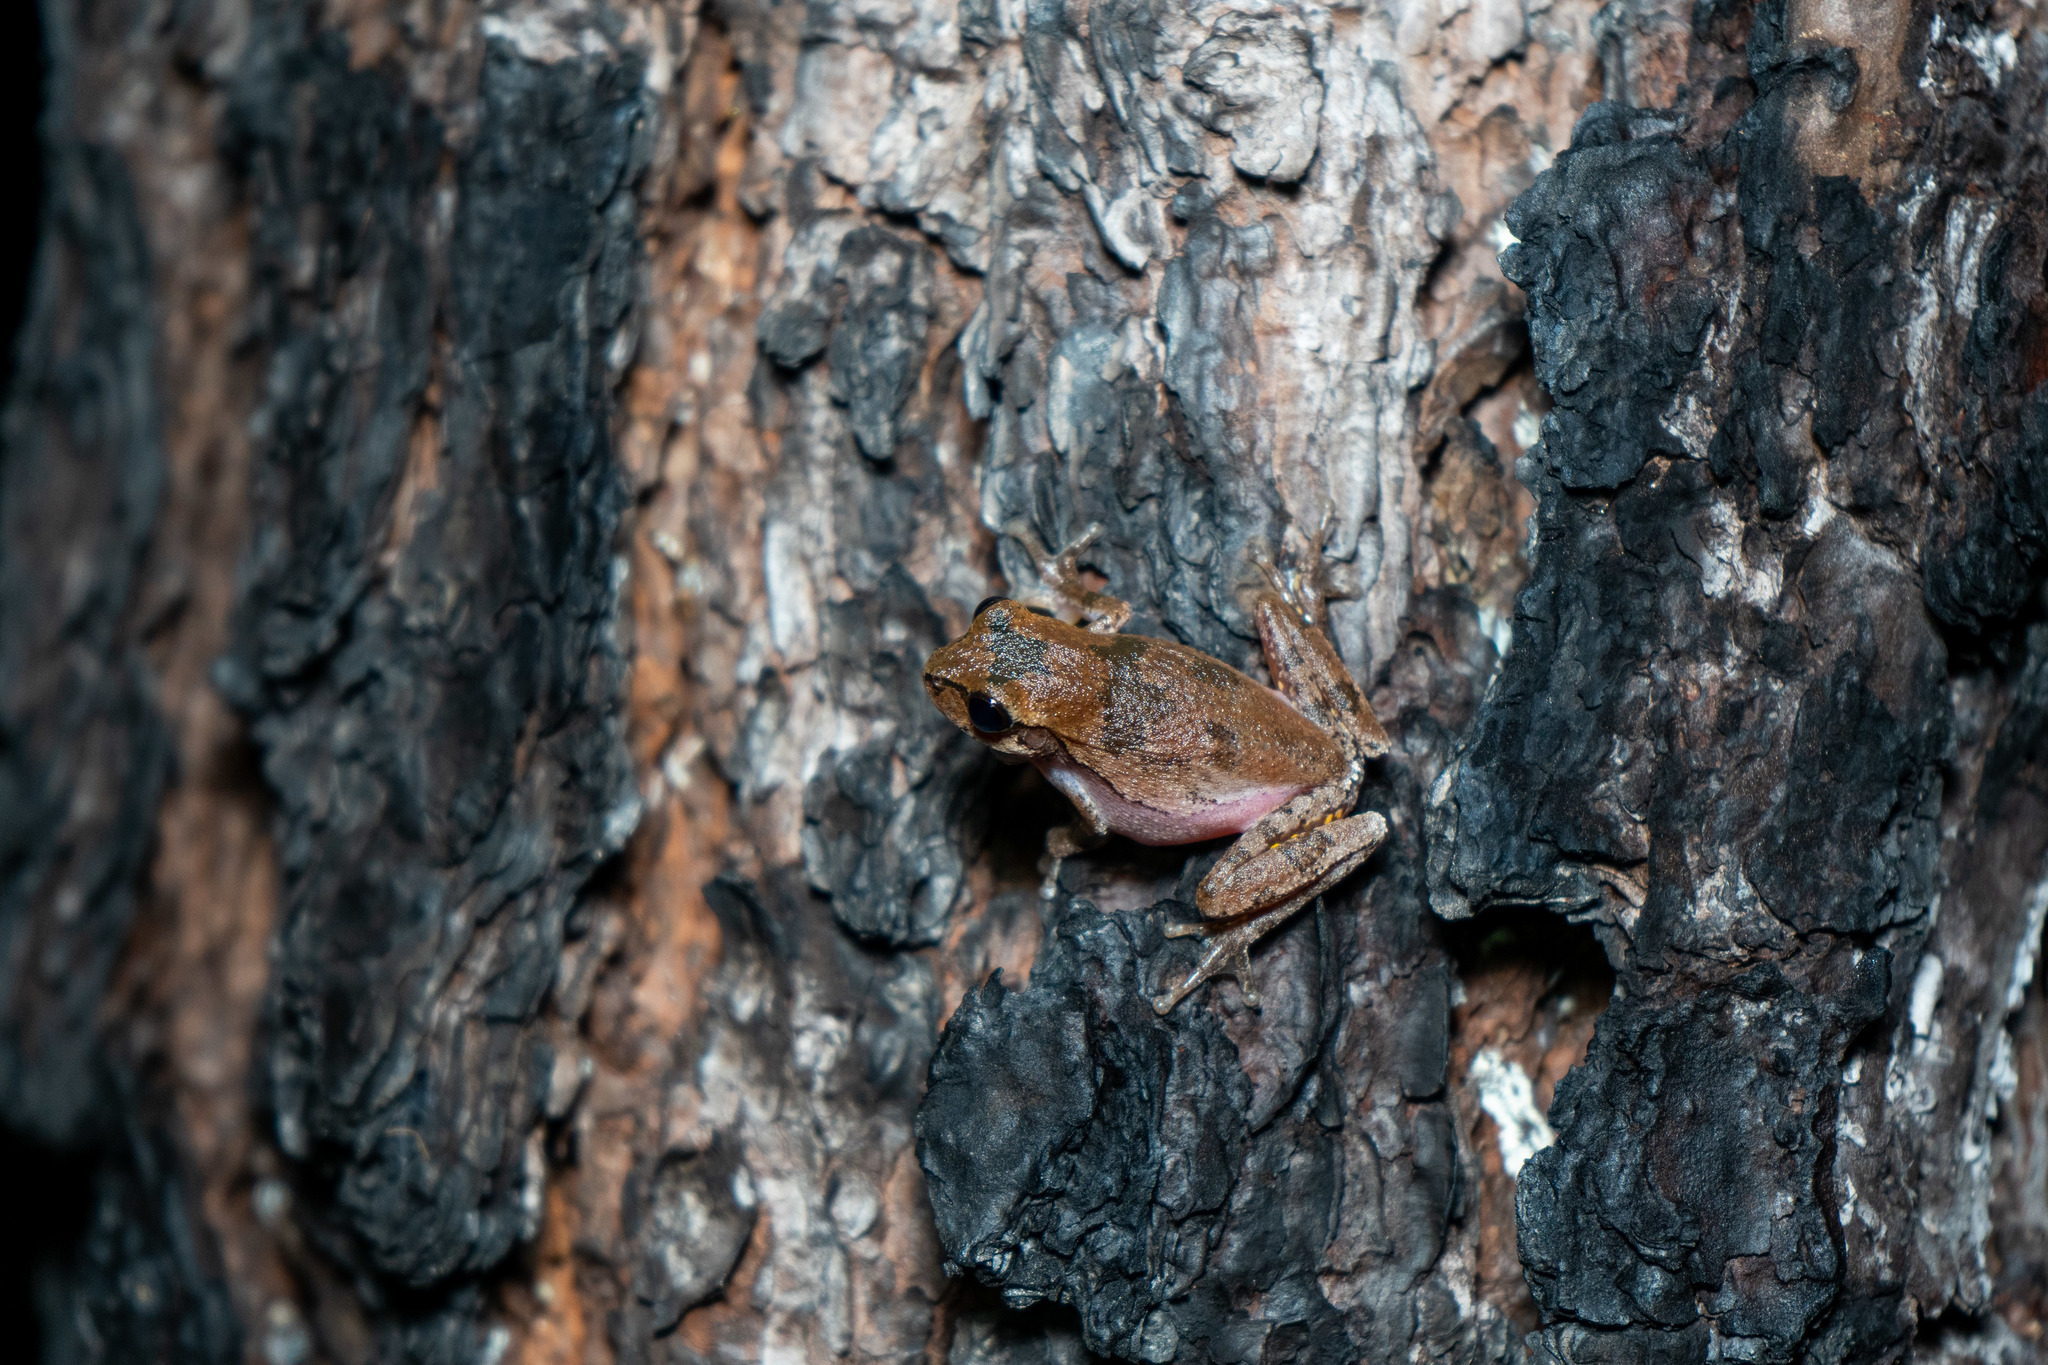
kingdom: Animalia
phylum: Chordata
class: Amphibia
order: Anura
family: Hylidae
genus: Hyla
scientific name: Hyla femoralis
